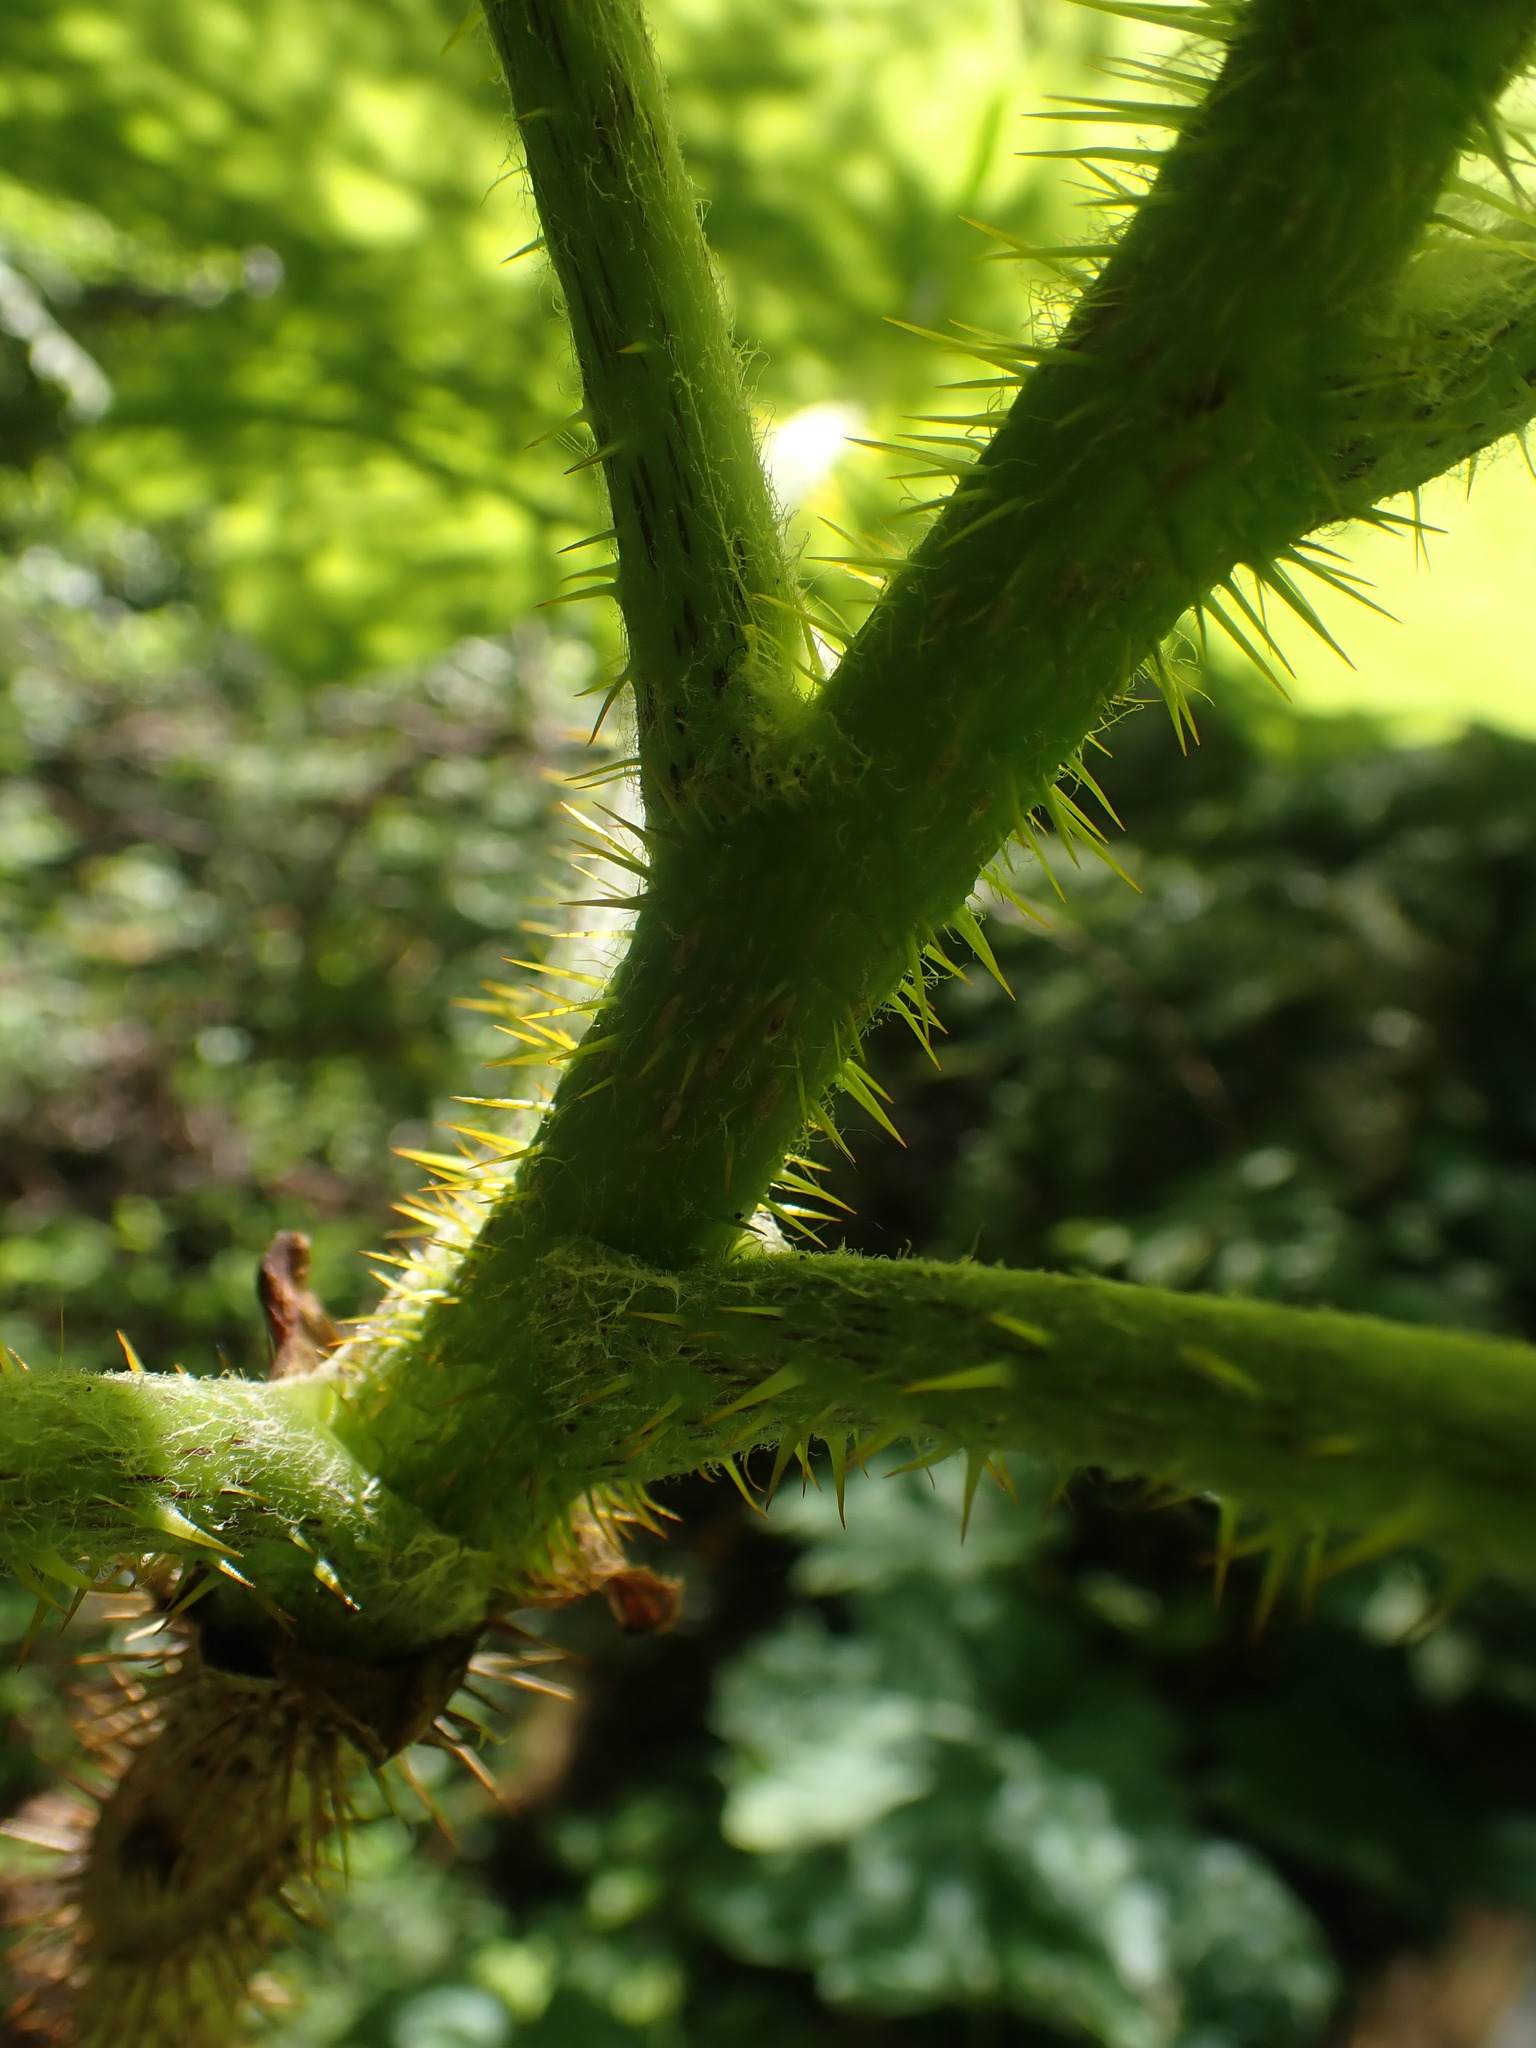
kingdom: Plantae
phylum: Tracheophyta
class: Magnoliopsida
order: Apiales
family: Araliaceae
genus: Oplopanax
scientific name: Oplopanax horridus
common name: Devil's walking-stick
